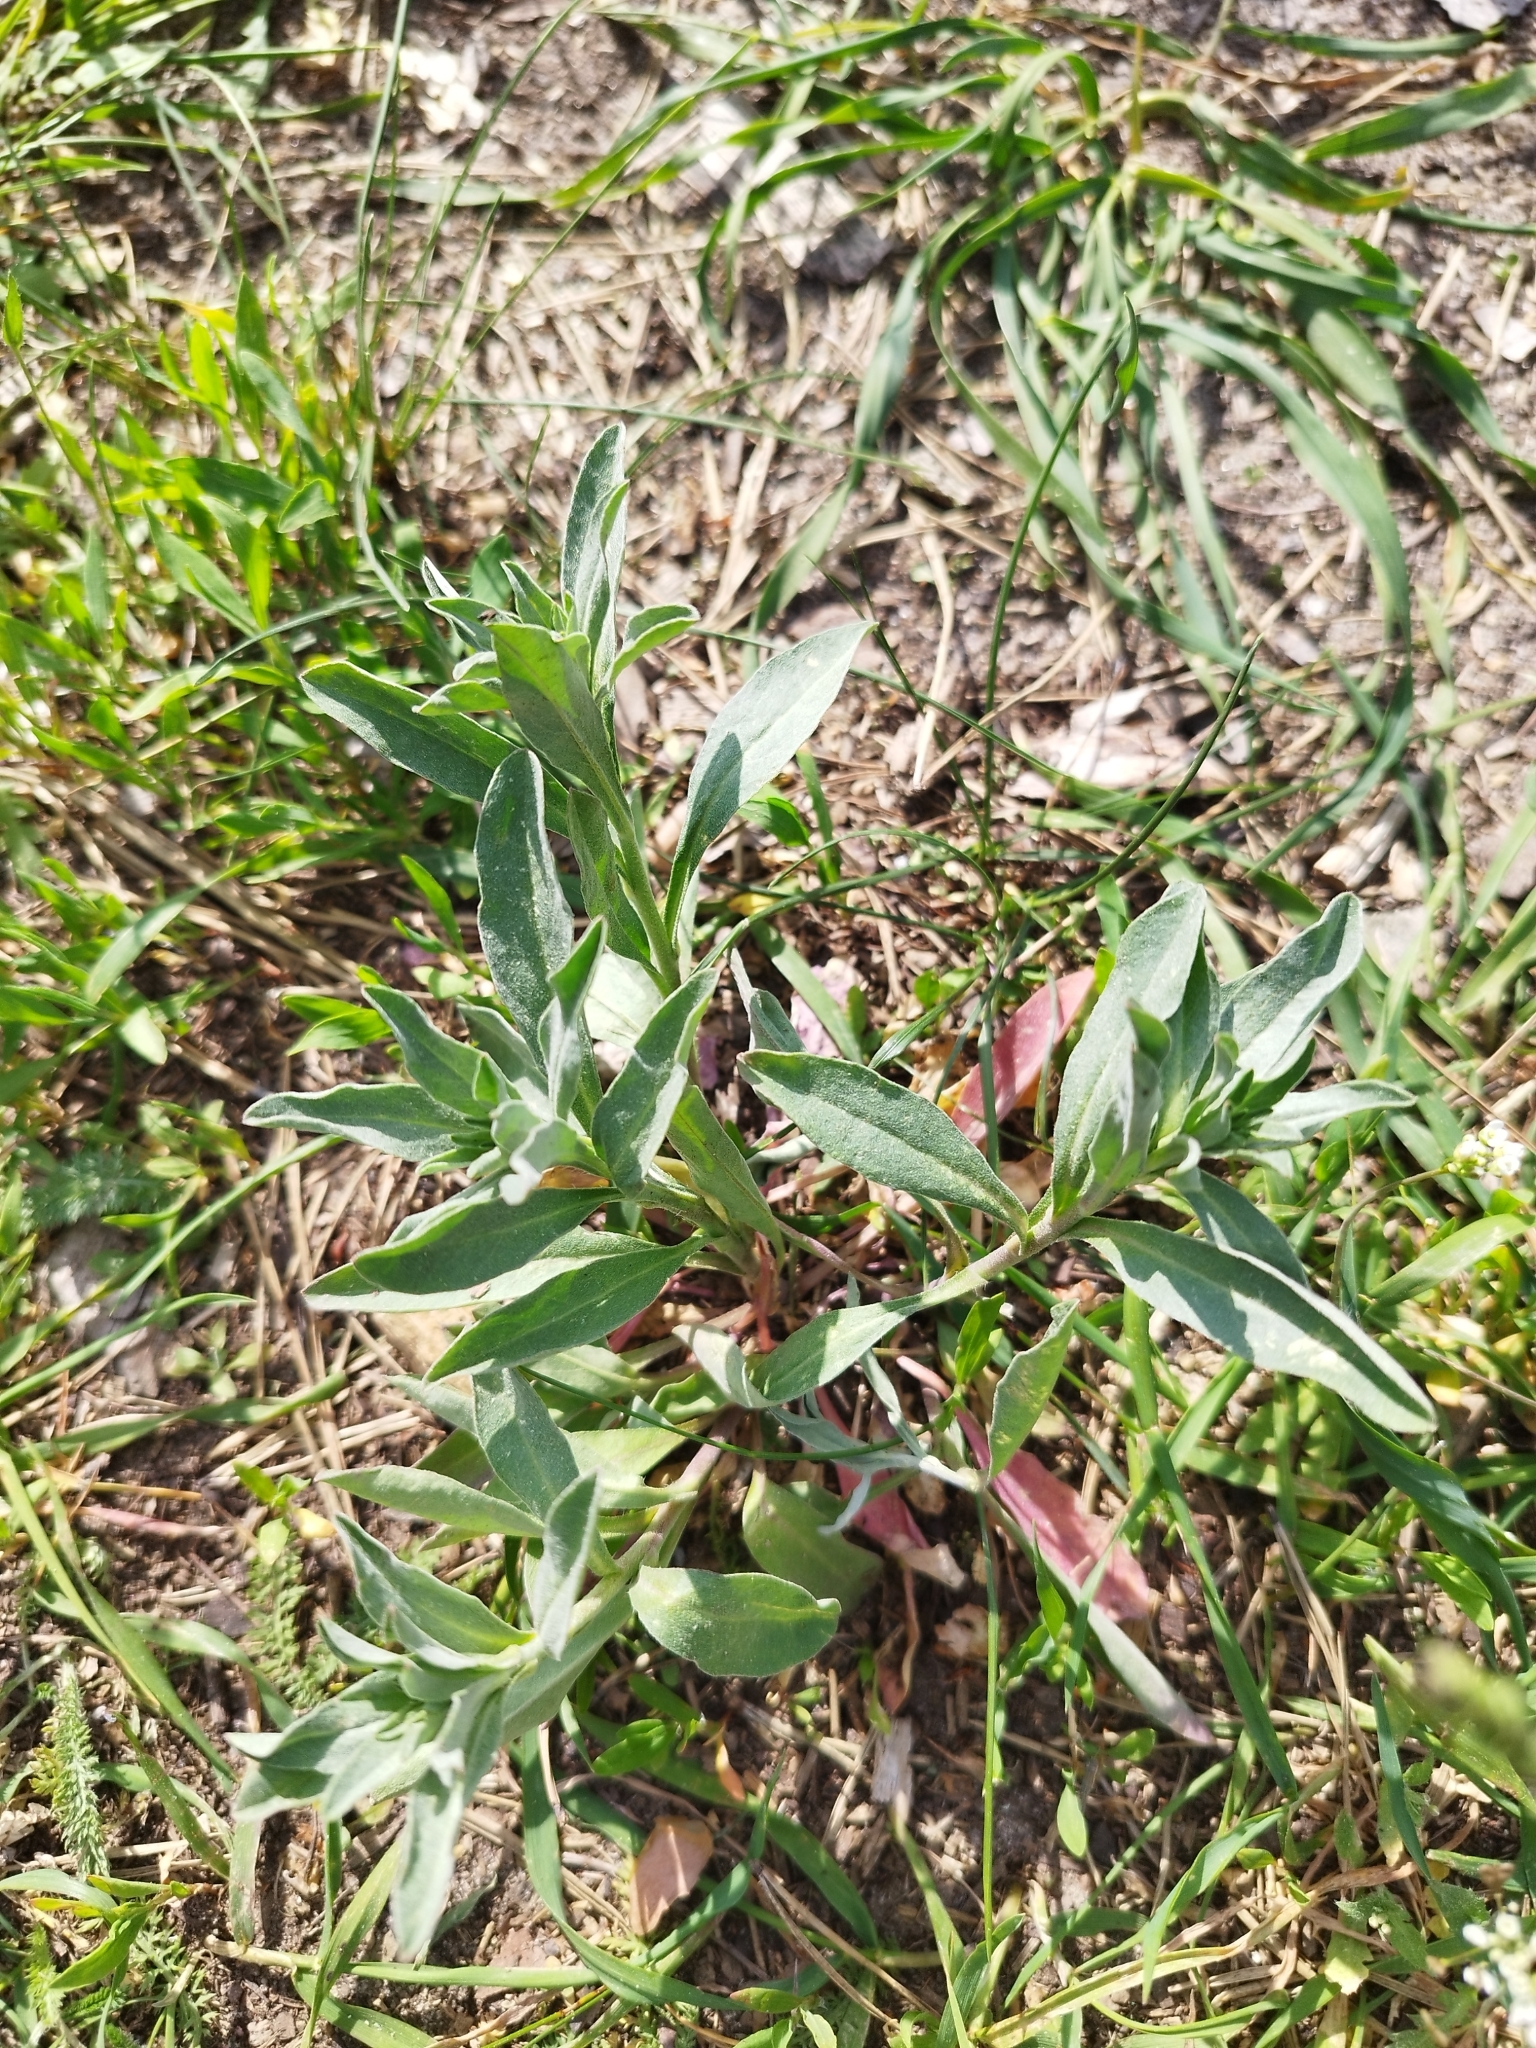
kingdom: Plantae
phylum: Tracheophyta
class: Magnoliopsida
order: Brassicales
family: Brassicaceae
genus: Berteroa
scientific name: Berteroa incana
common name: Hoary alison
